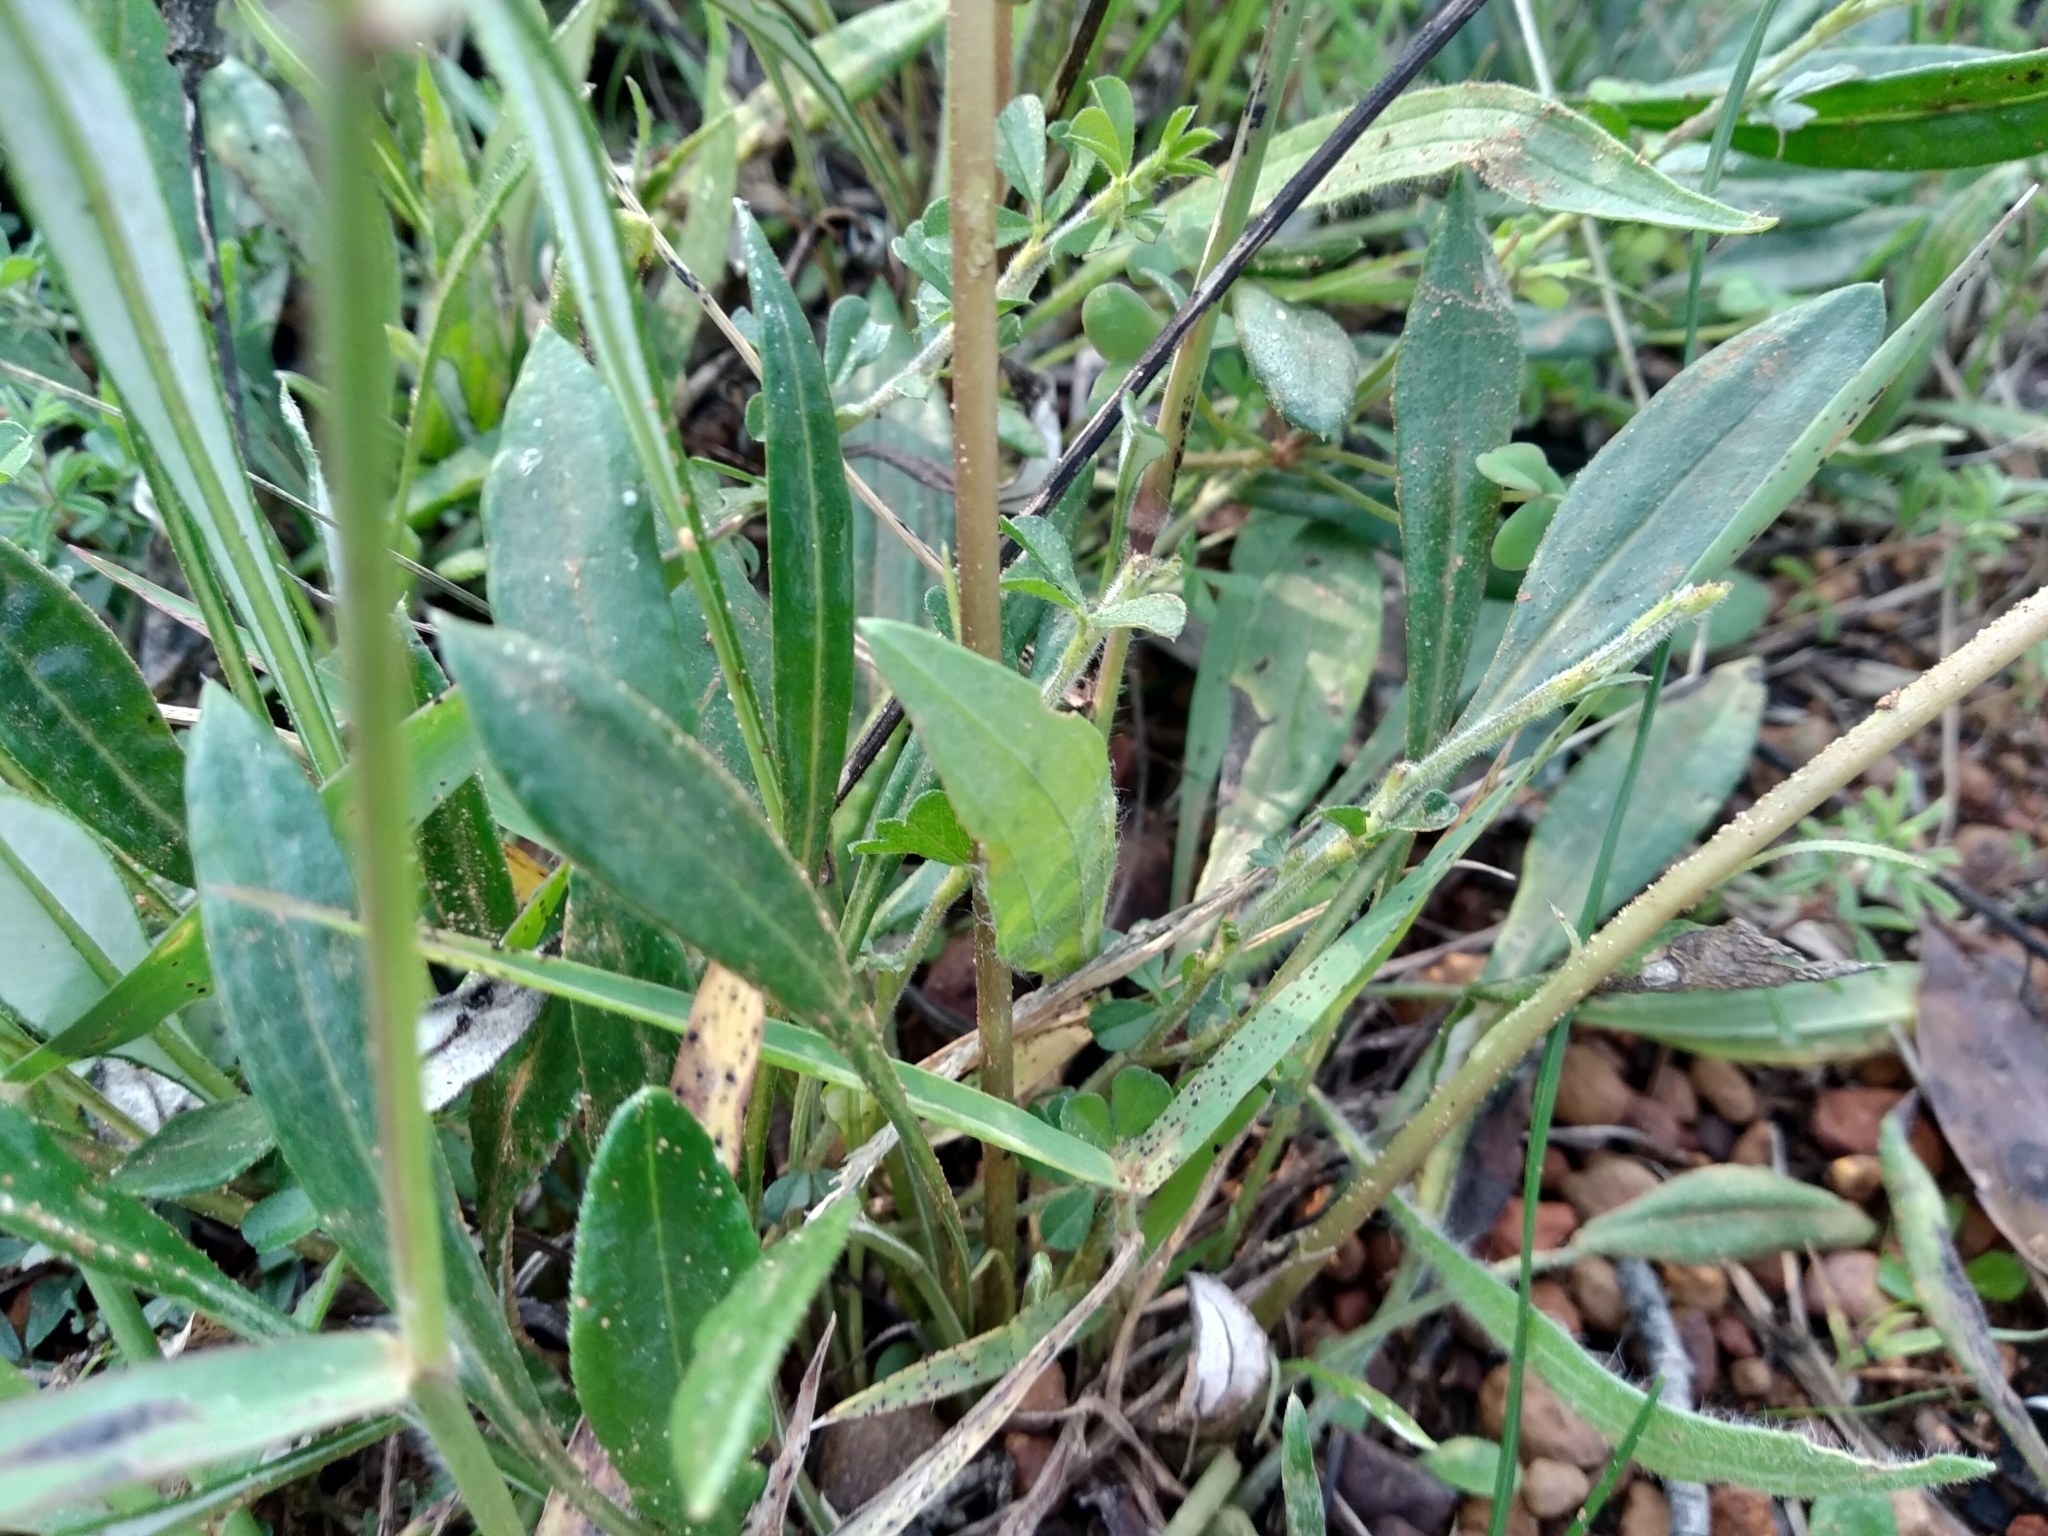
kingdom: Plantae
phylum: Tracheophyta
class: Magnoliopsida
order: Asterales
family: Asteraceae
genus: Gazania
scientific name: Gazania rigens
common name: Treasureflower
